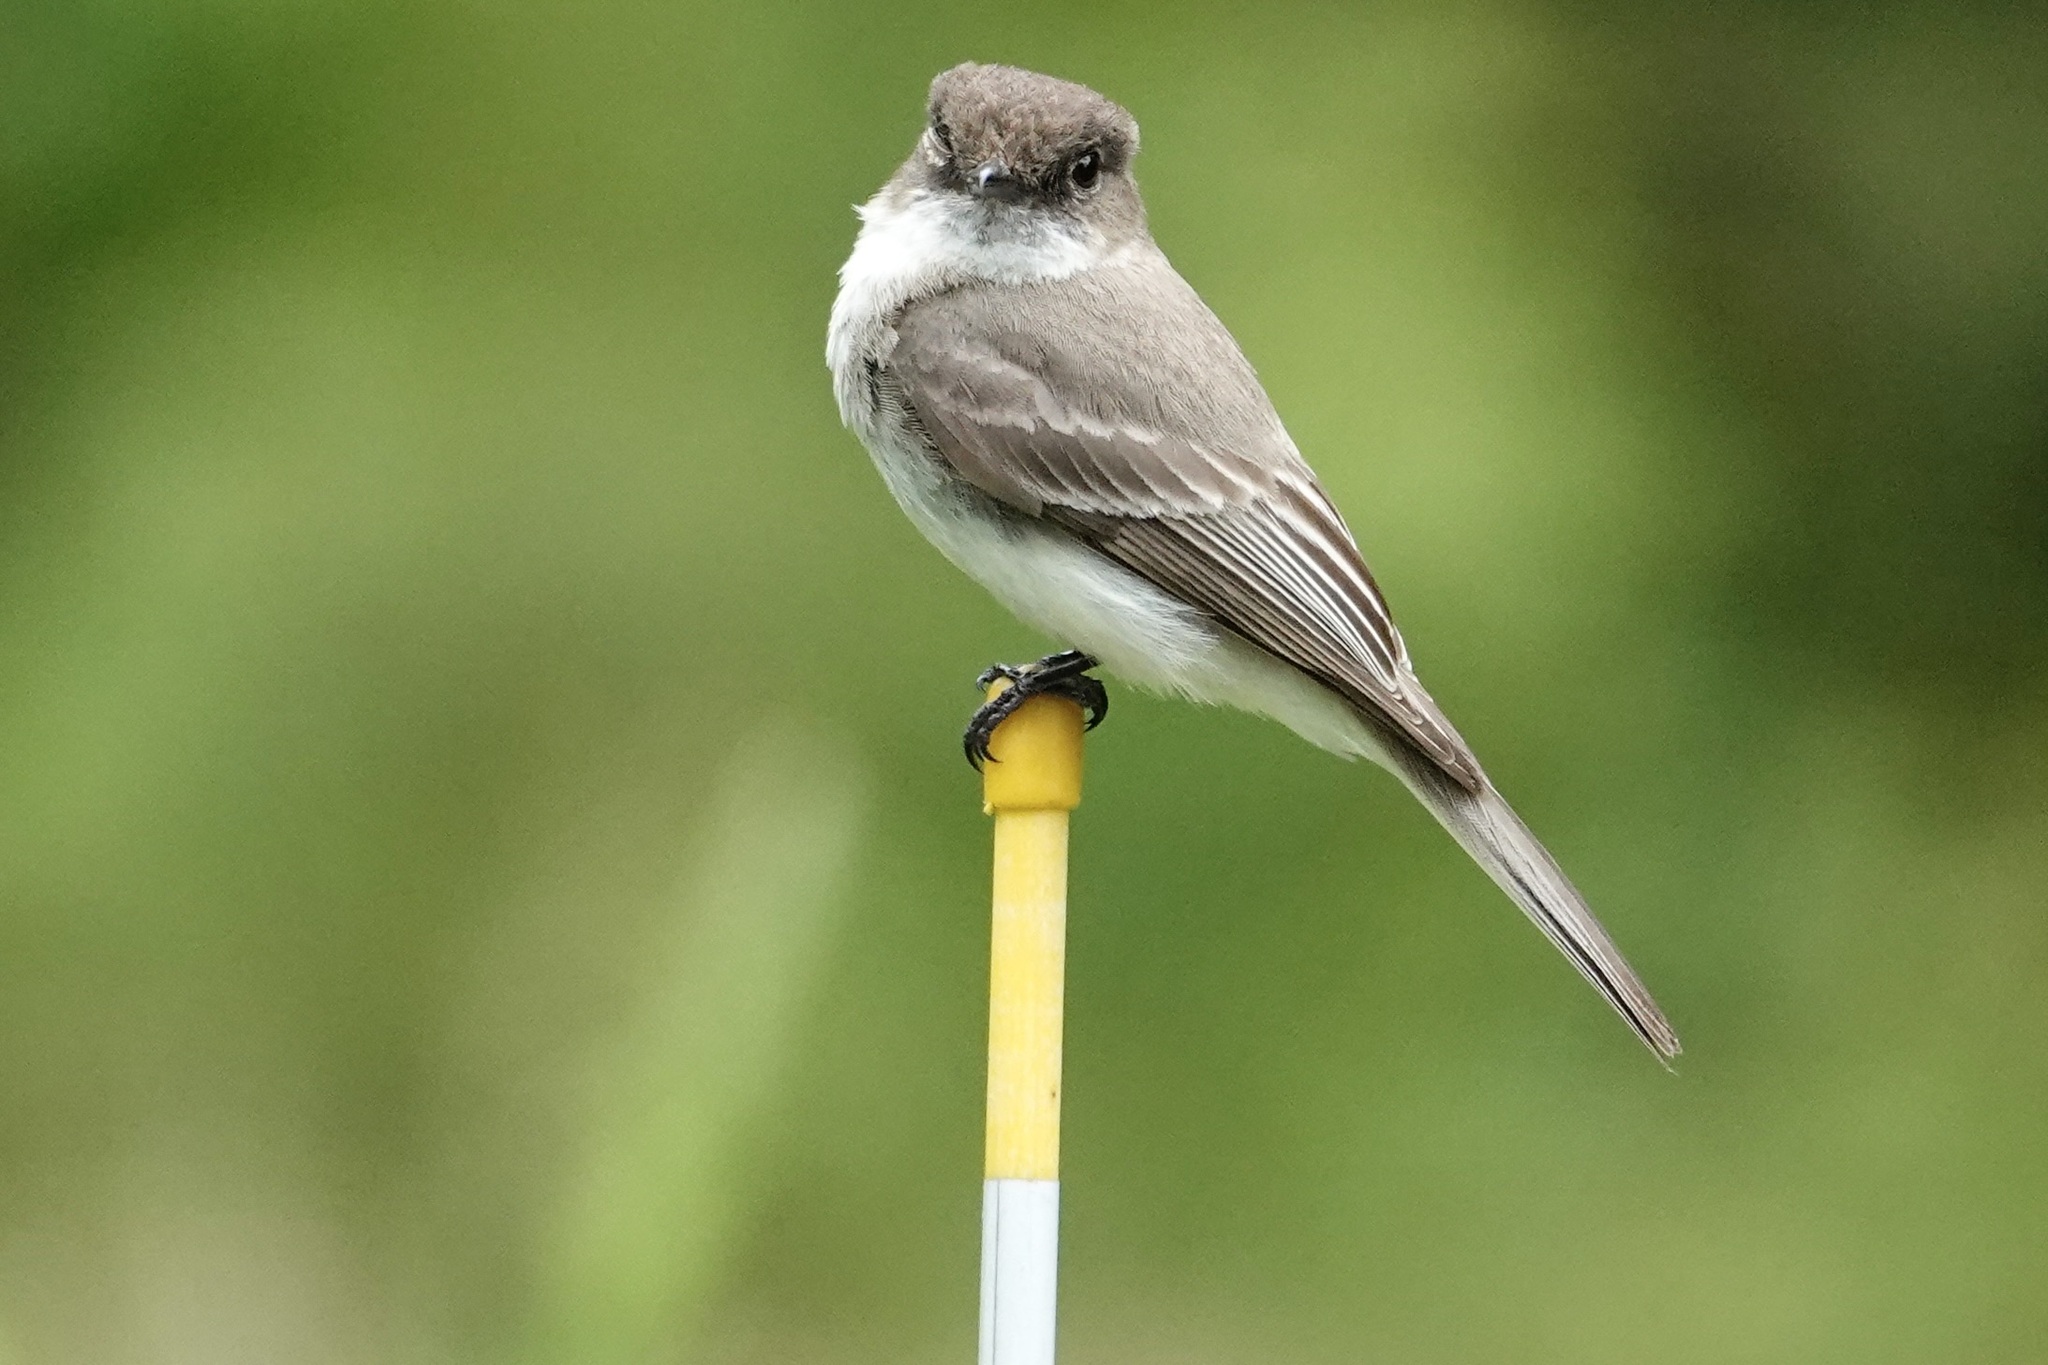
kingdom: Animalia
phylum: Chordata
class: Aves
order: Passeriformes
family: Tyrannidae
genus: Sayornis
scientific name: Sayornis phoebe
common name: Eastern phoebe
